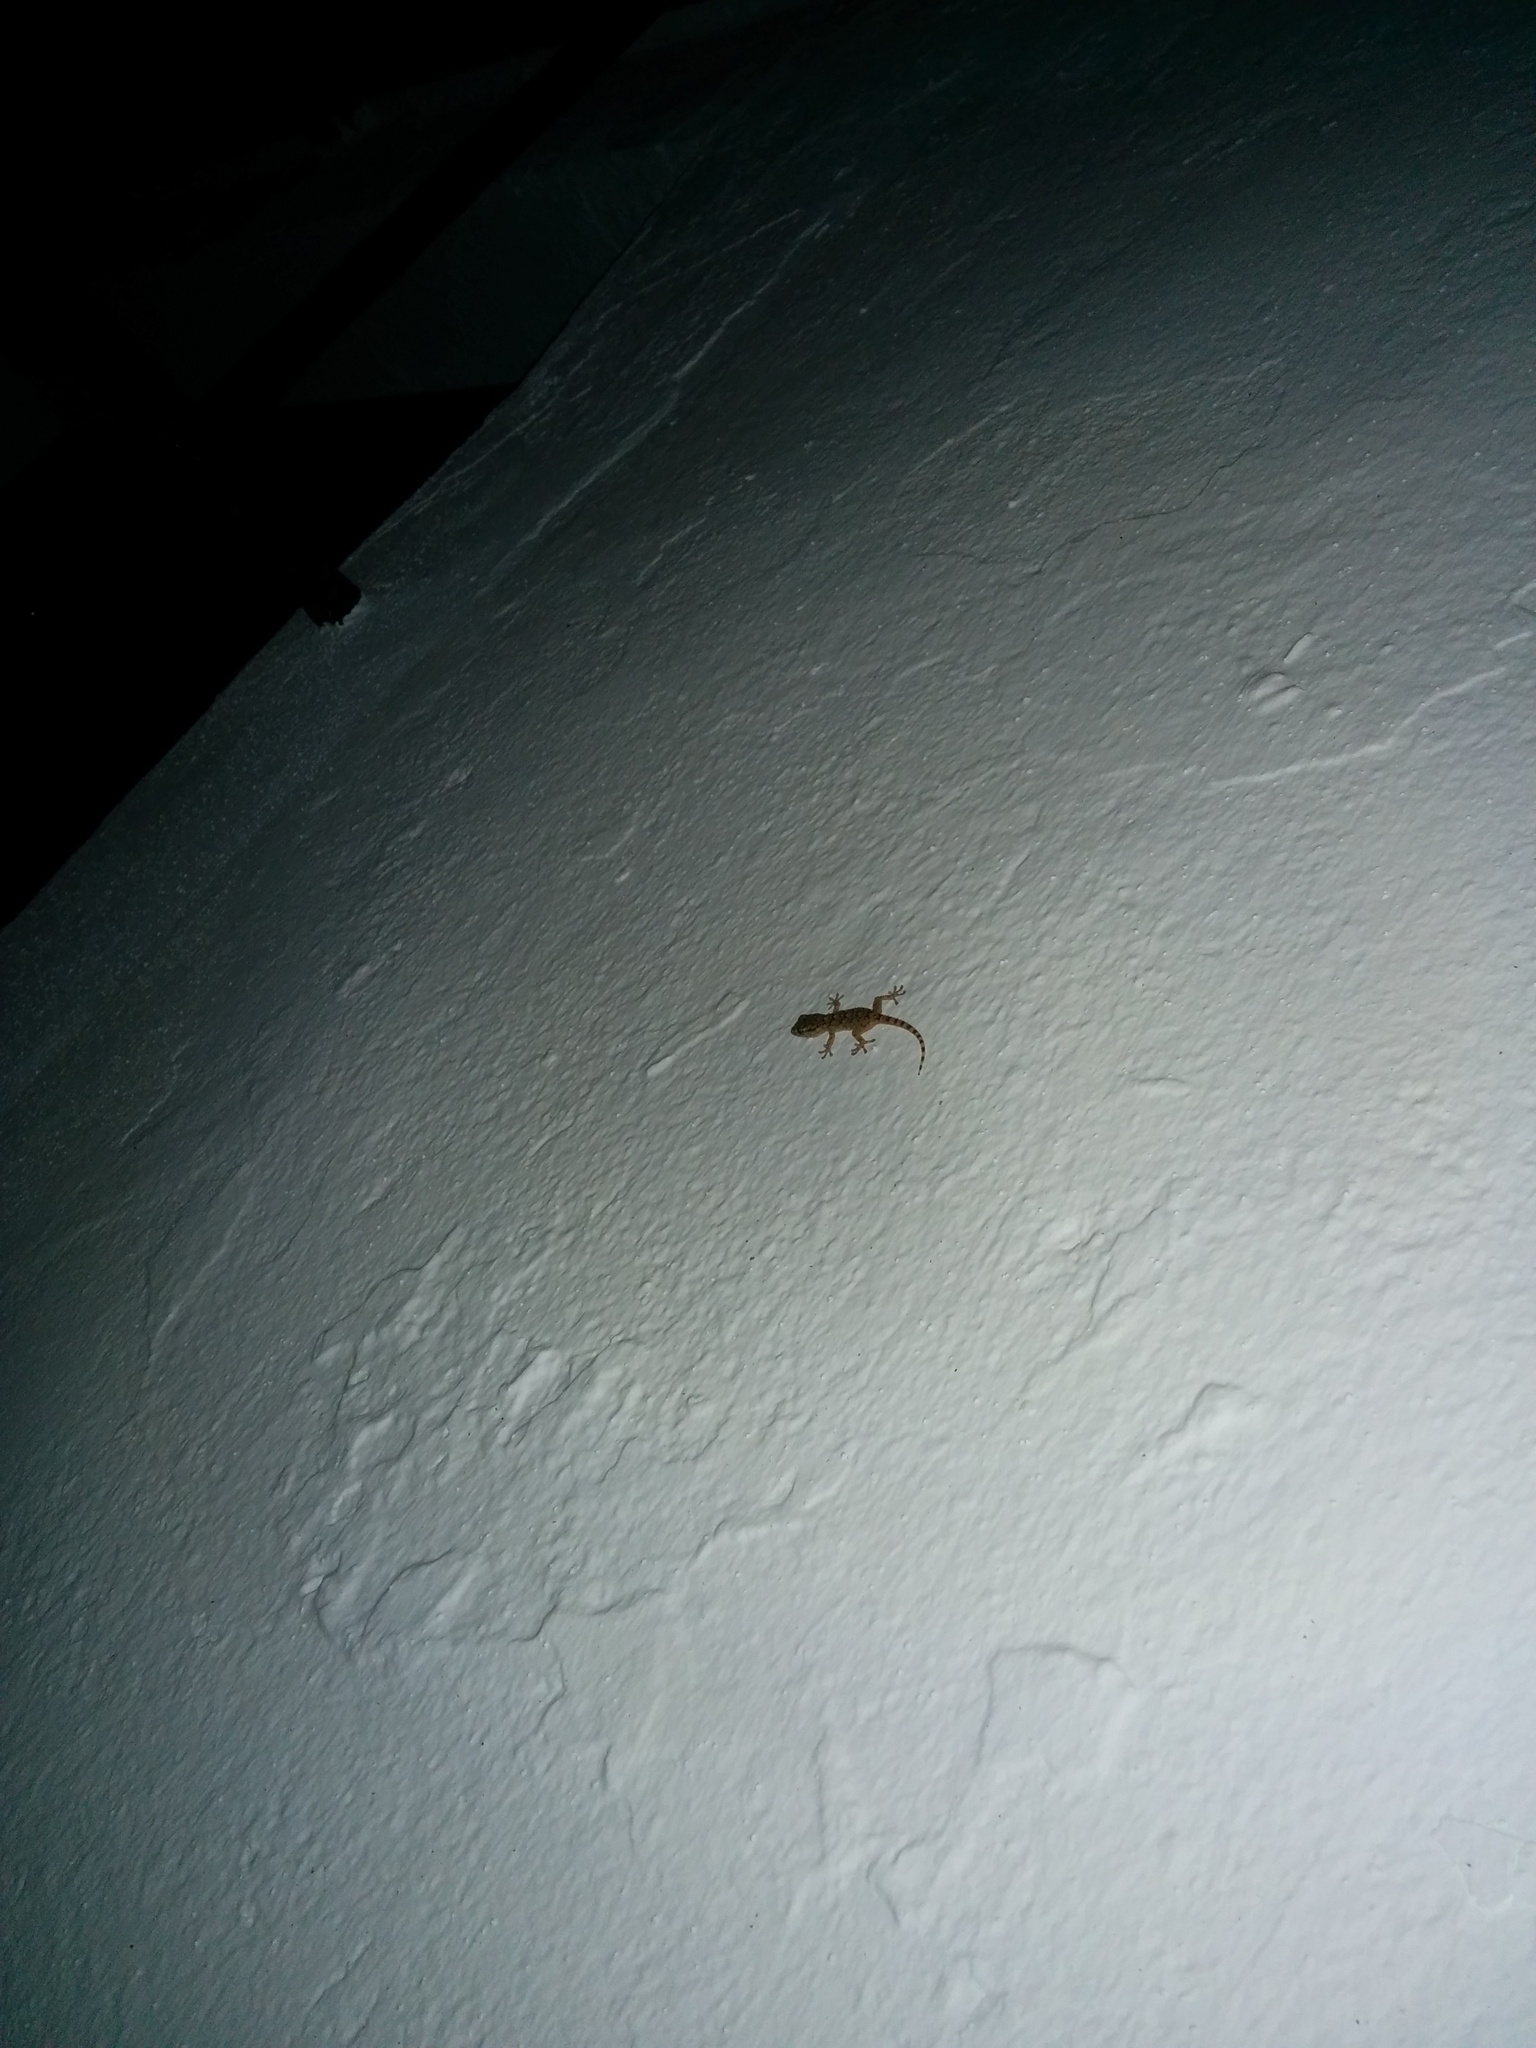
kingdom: Animalia
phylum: Chordata
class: Squamata
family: Phyllodactylidae
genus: Tarentola
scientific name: Tarentola mauritanica
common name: Moorish gecko
